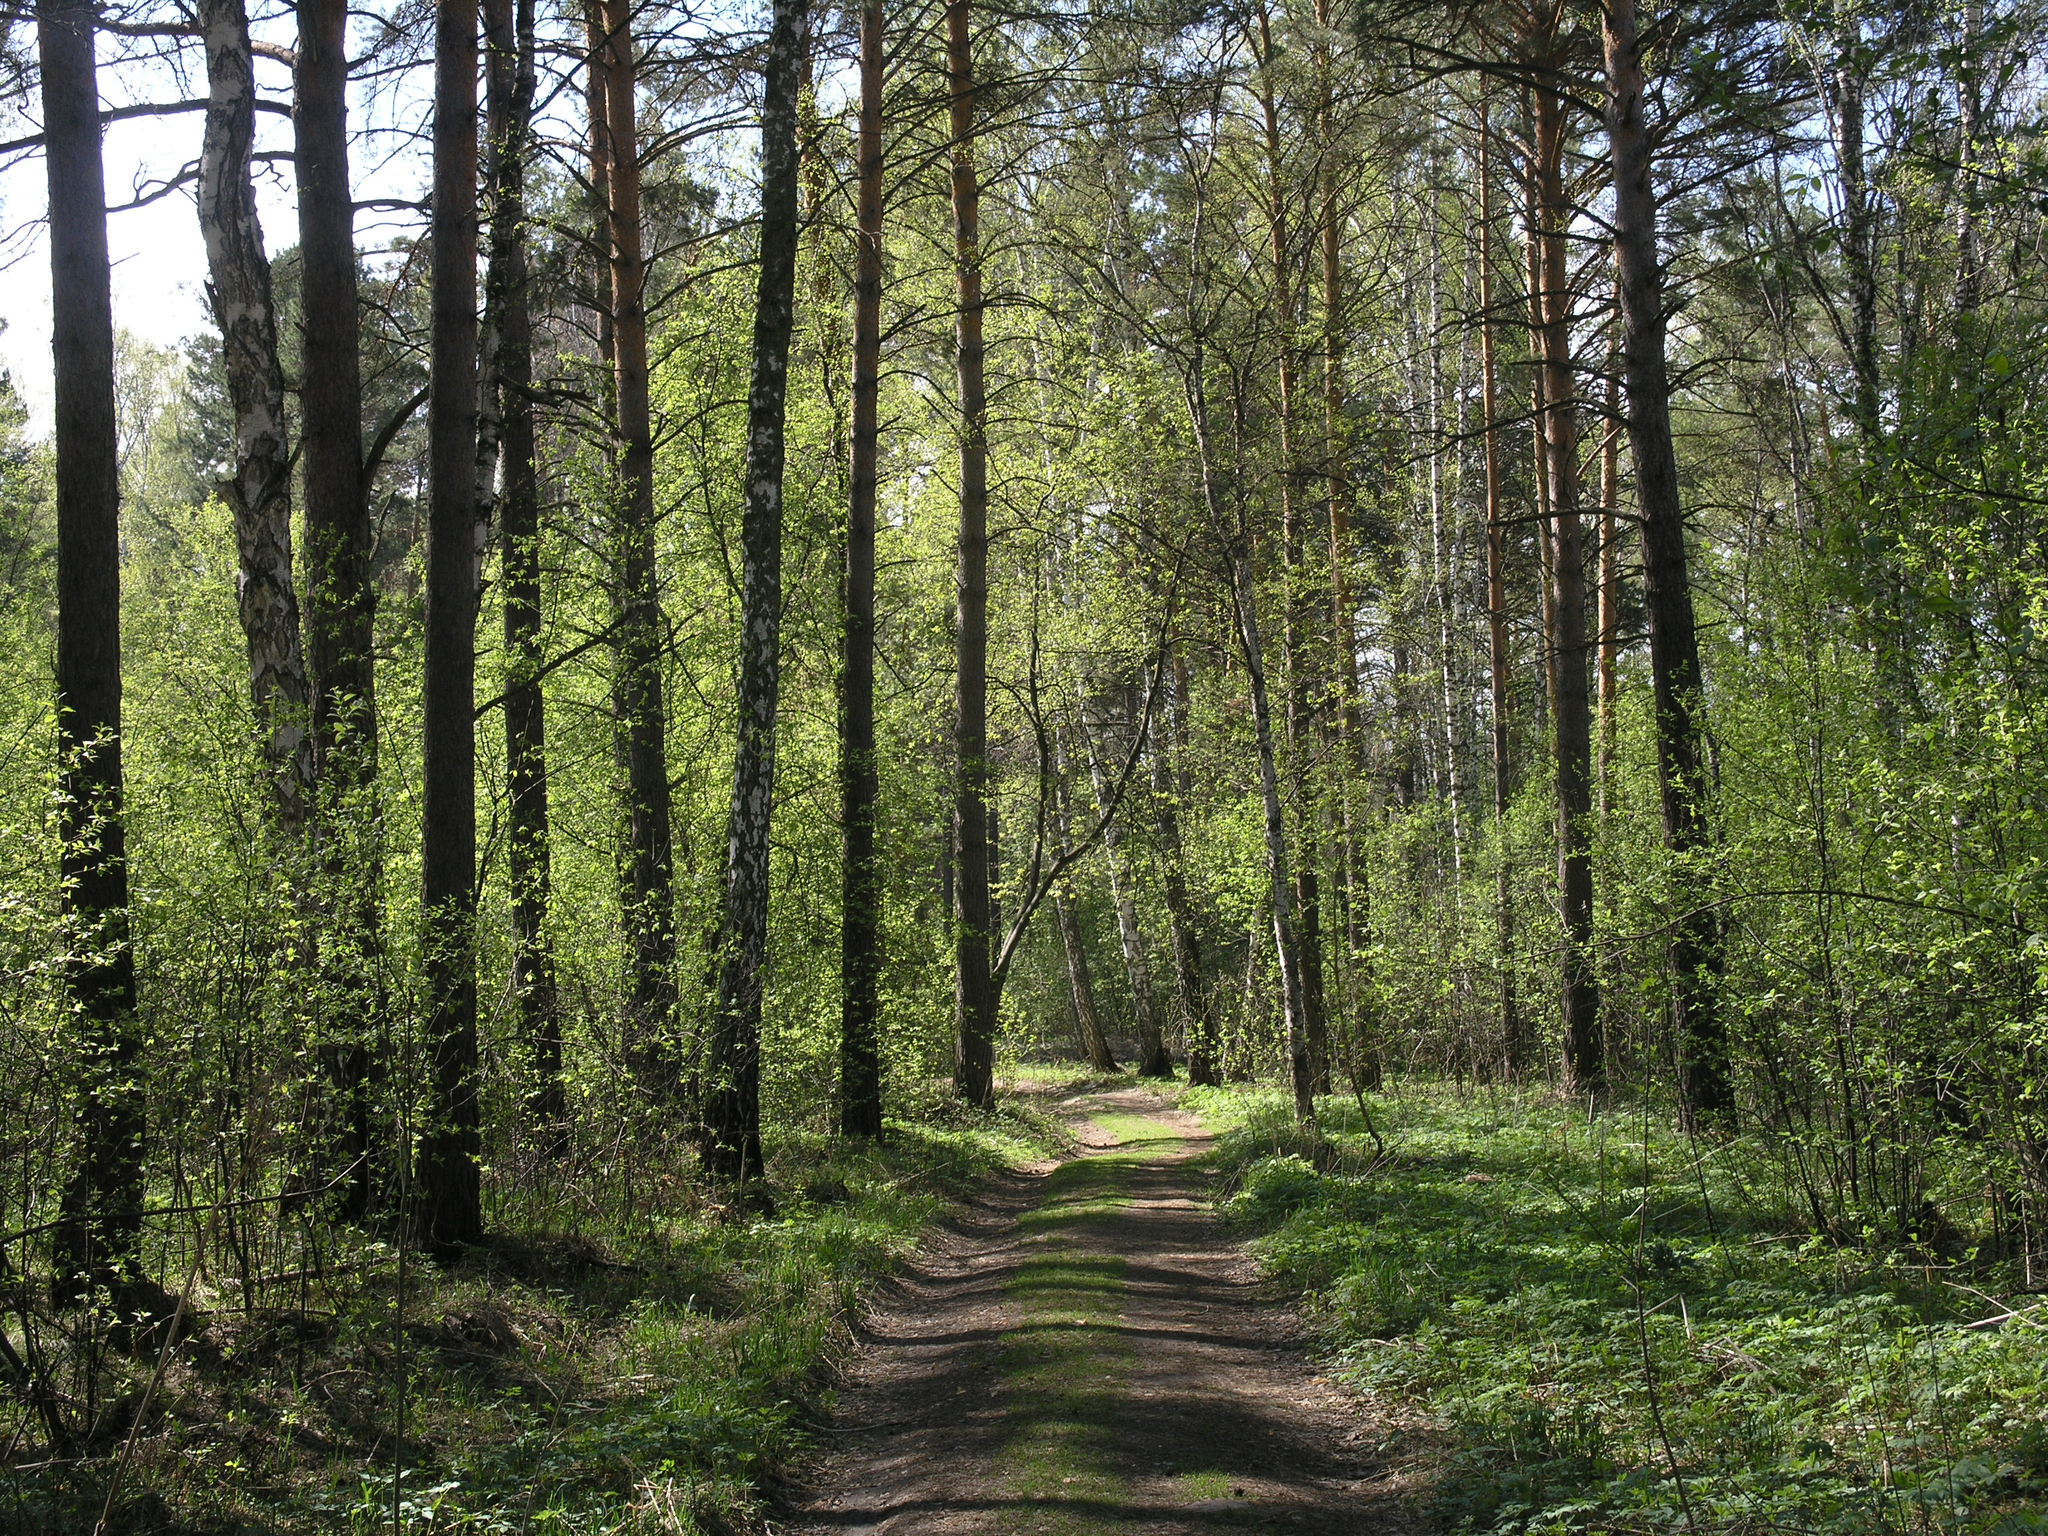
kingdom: Plantae
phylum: Tracheophyta
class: Pinopsida
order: Pinales
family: Pinaceae
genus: Pinus
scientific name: Pinus sylvestris
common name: Scots pine
